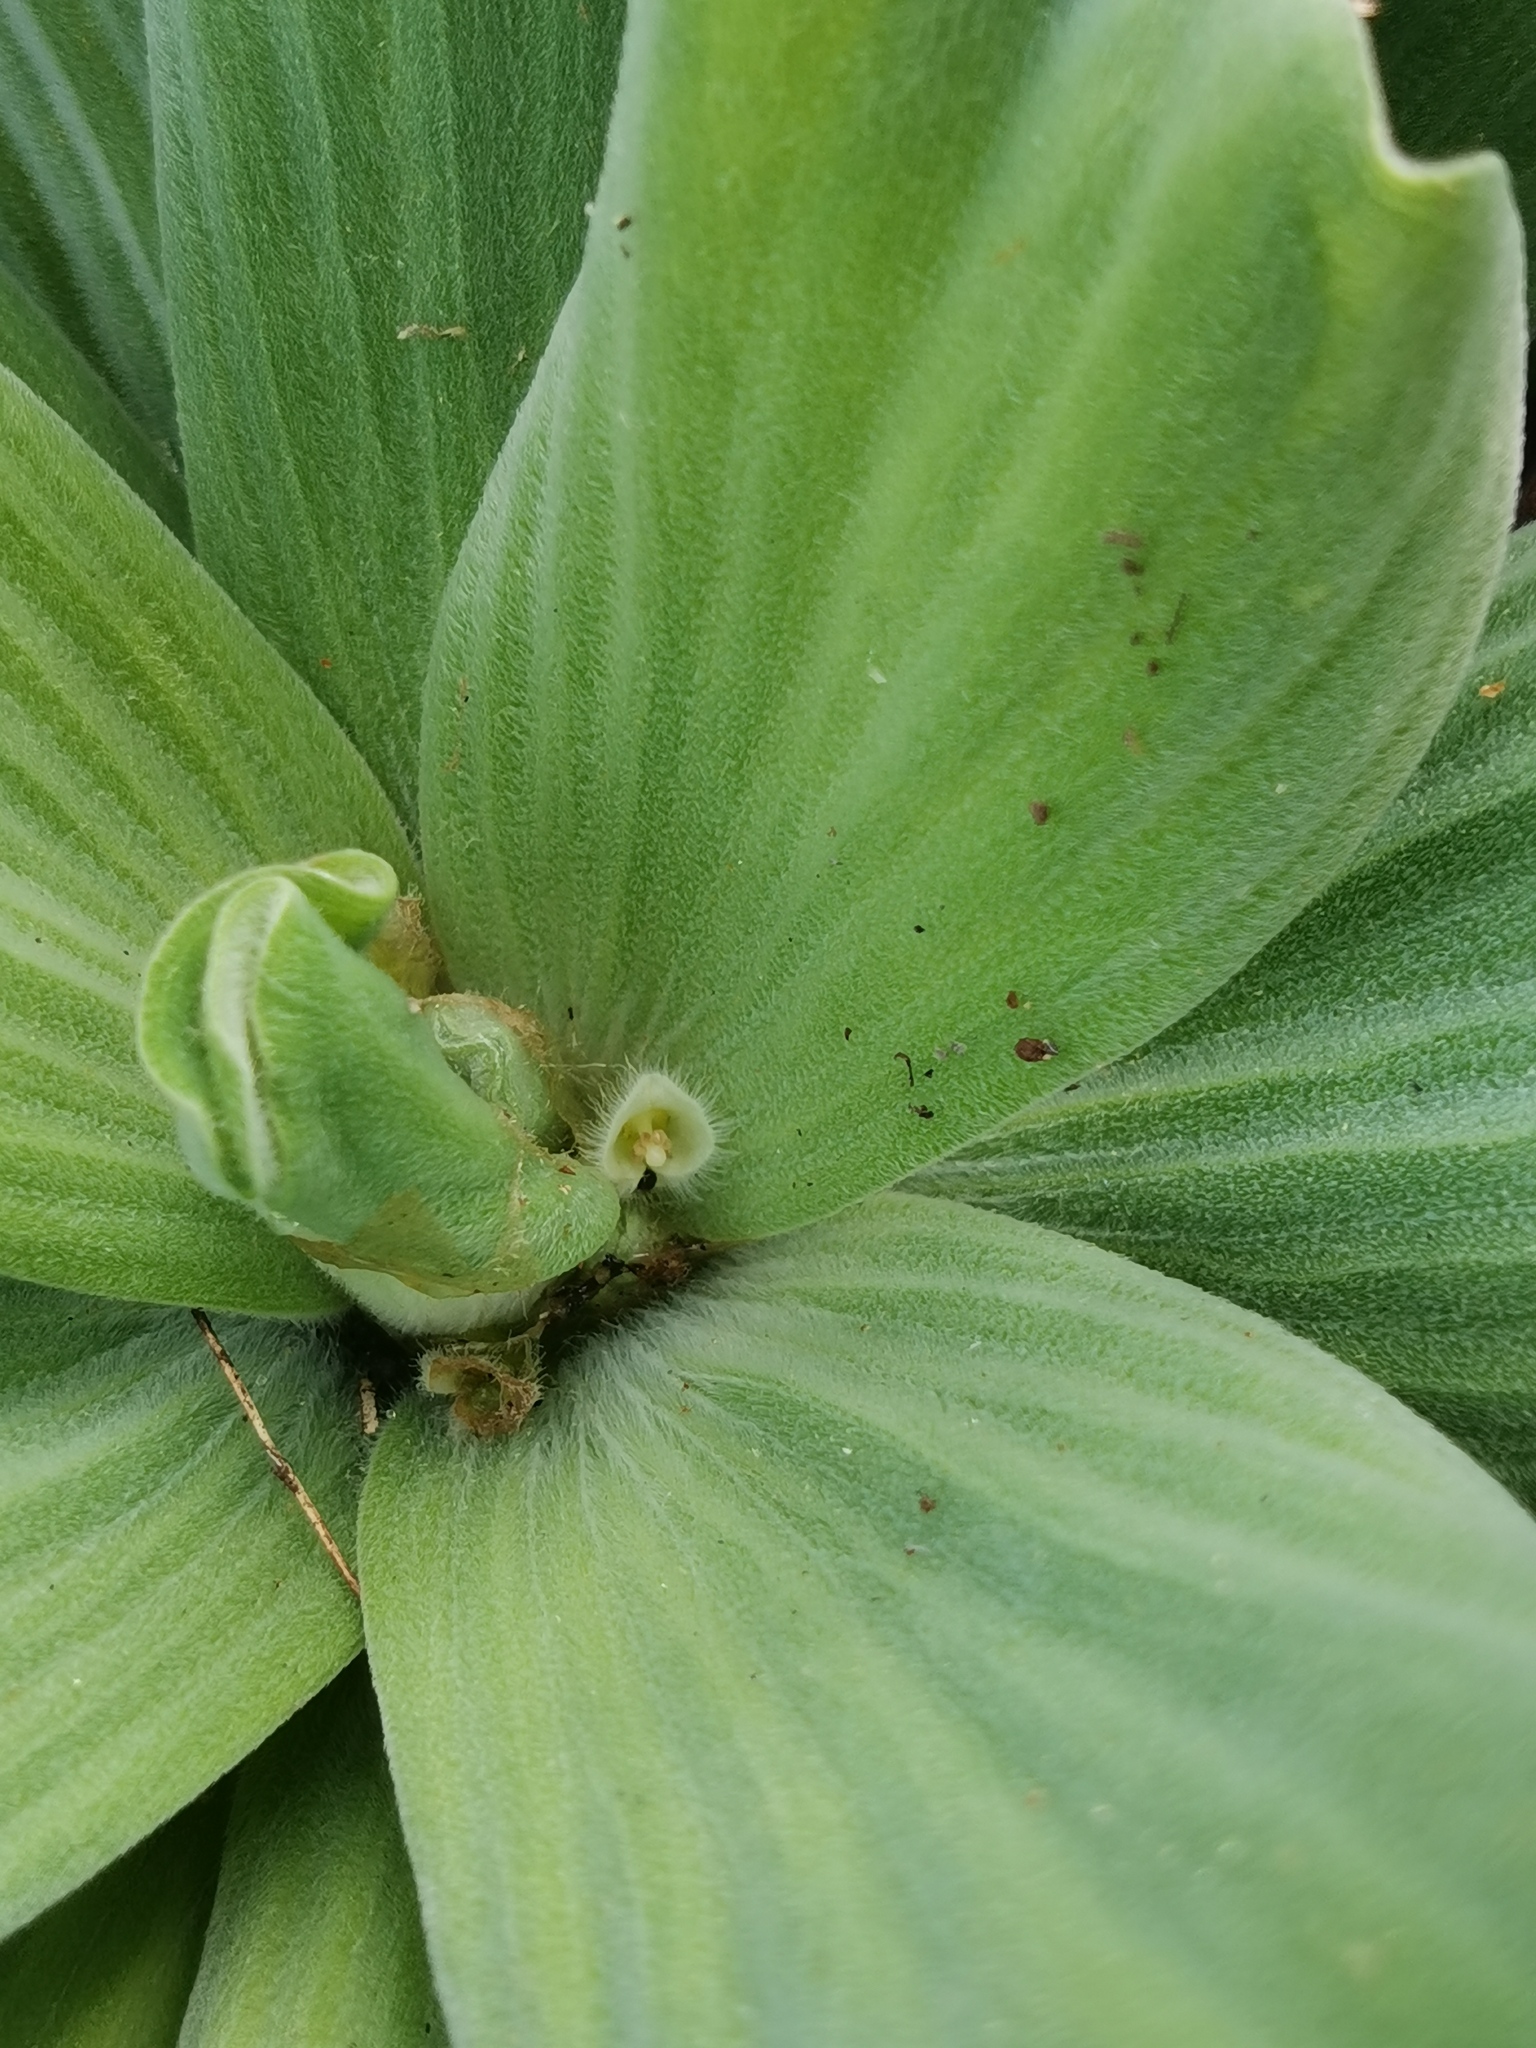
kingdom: Plantae
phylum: Tracheophyta
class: Liliopsida
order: Alismatales
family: Araceae
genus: Pistia
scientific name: Pistia stratiotes
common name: Water lettuce
